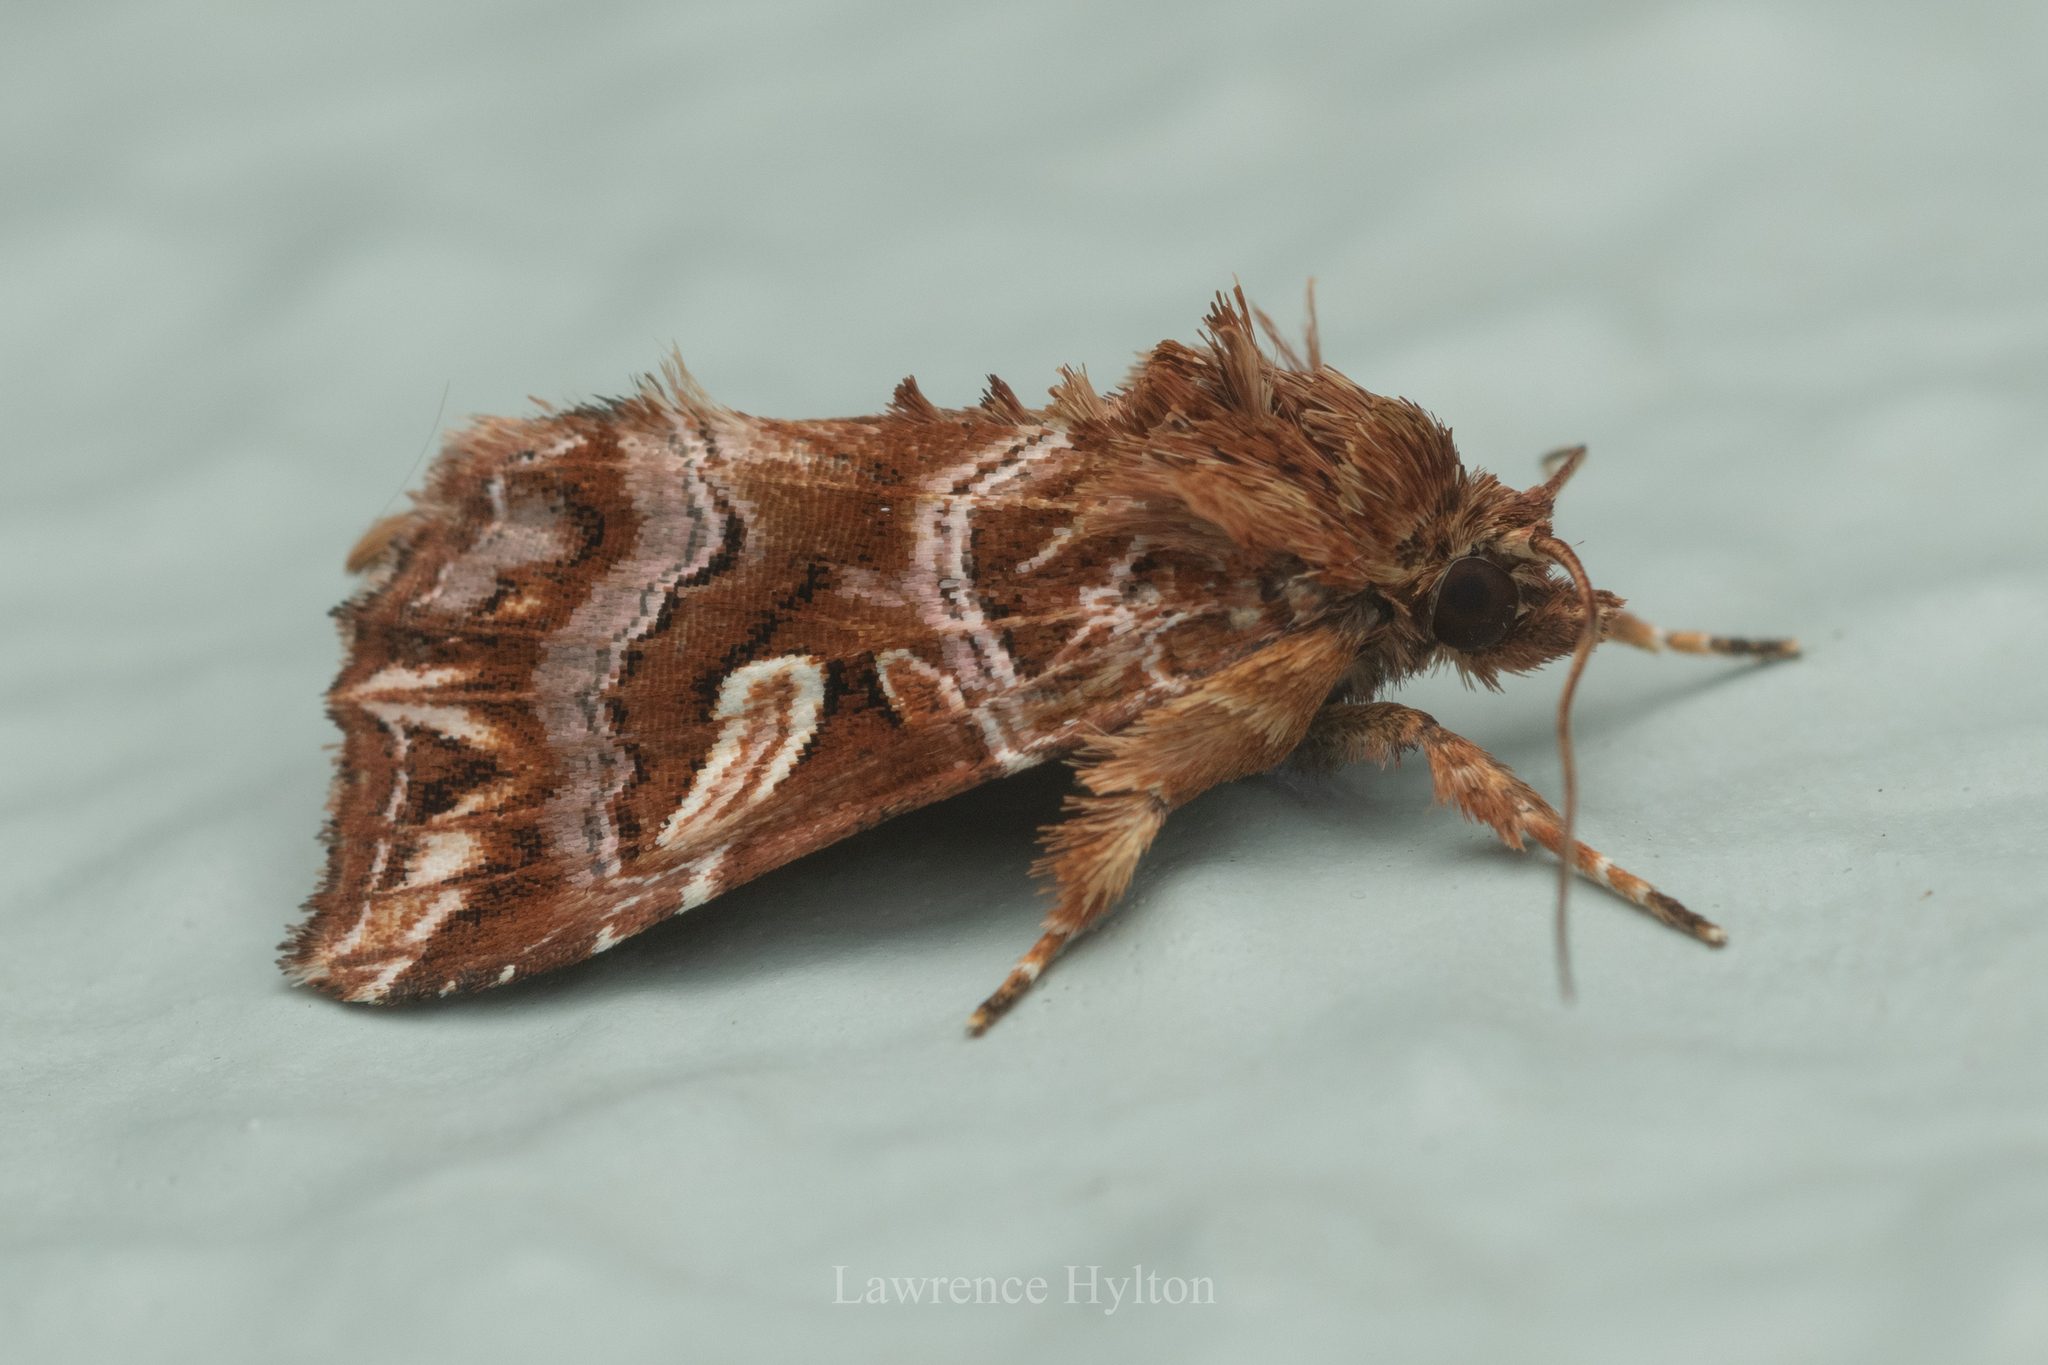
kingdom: Animalia
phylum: Arthropoda
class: Insecta
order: Lepidoptera
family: Noctuidae
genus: Callopistria
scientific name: Callopistria exotica
